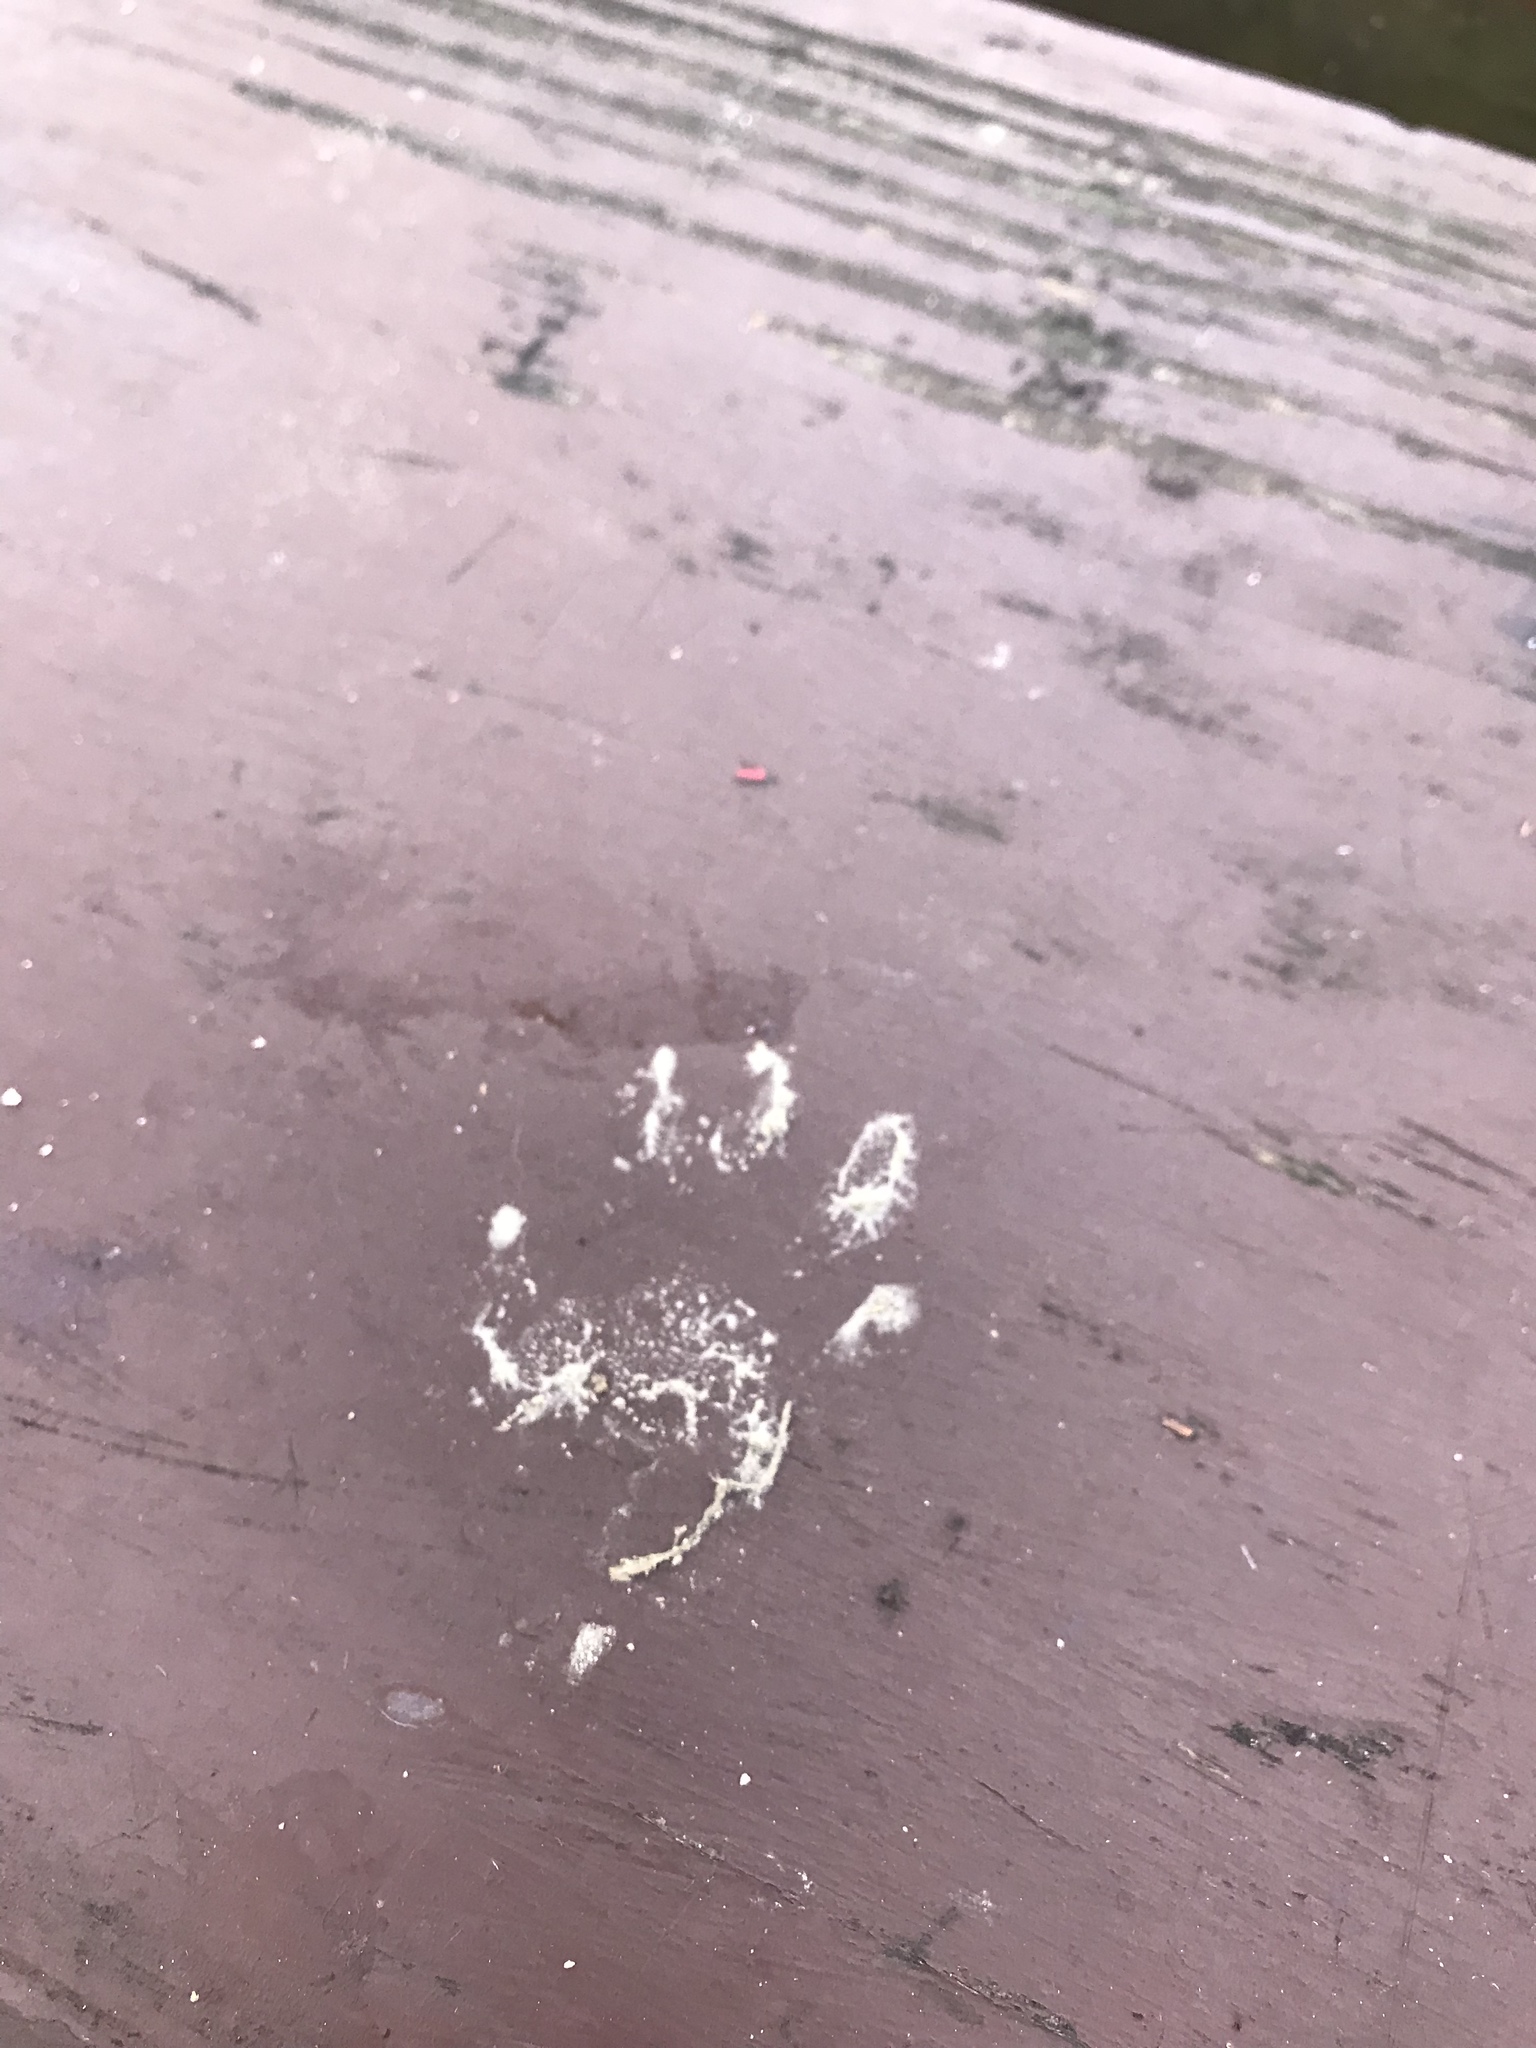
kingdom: Animalia
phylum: Chordata
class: Mammalia
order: Carnivora
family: Procyonidae
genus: Procyon
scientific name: Procyon lotor
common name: Raccoon
